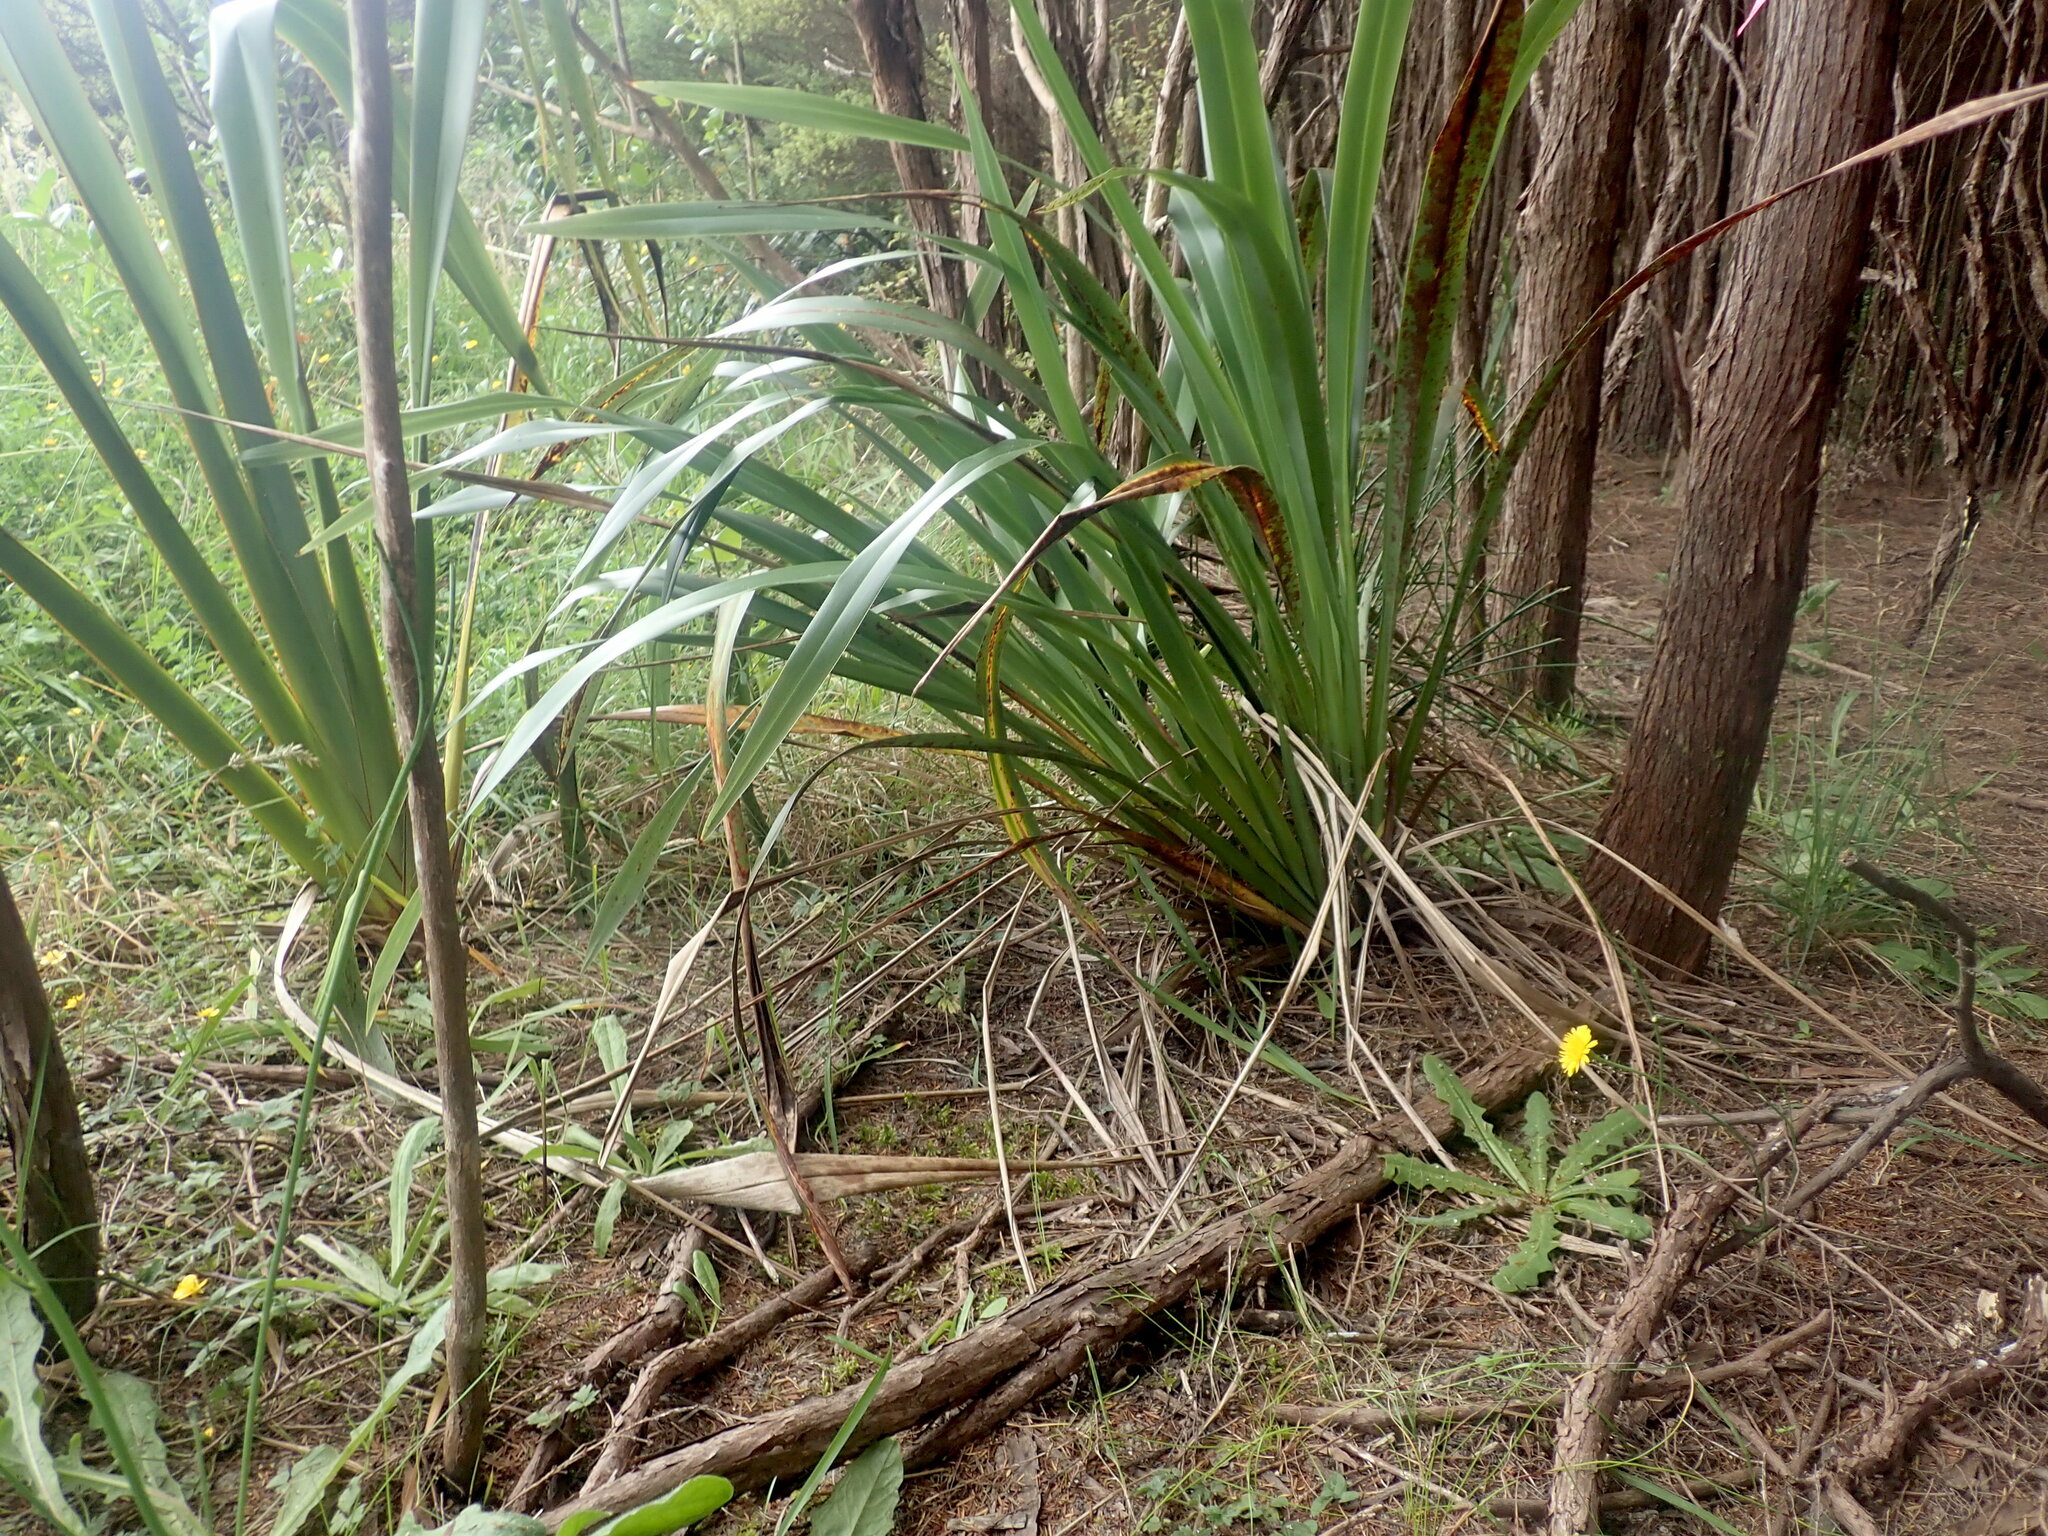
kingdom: Plantae
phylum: Tracheophyta
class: Liliopsida
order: Asparagales
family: Asphodelaceae
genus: Phormium
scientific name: Phormium tenax
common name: New zealand flax
